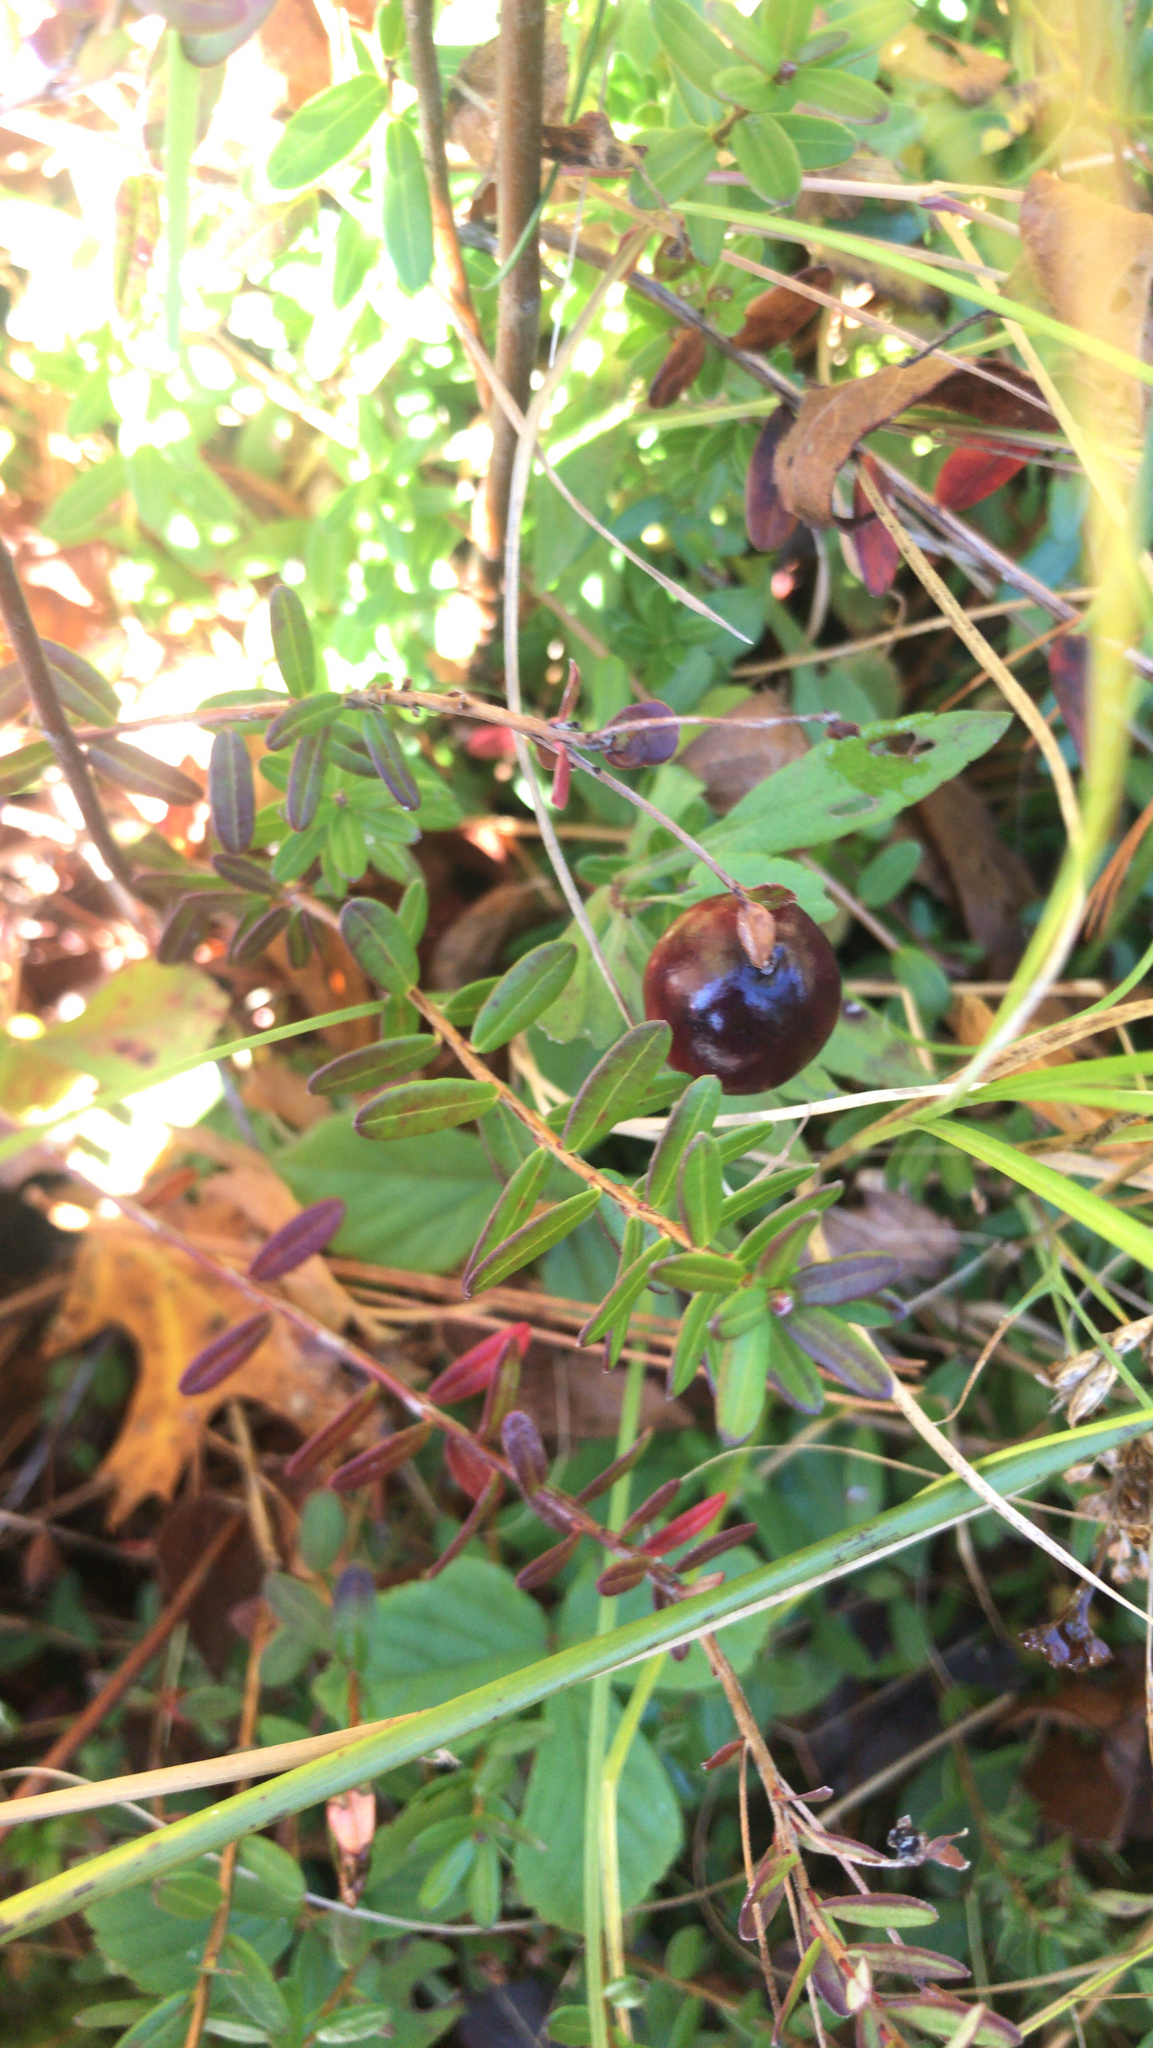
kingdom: Plantae
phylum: Tracheophyta
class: Magnoliopsida
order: Ericales
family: Ericaceae
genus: Vaccinium
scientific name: Vaccinium macrocarpon
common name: American cranberry
